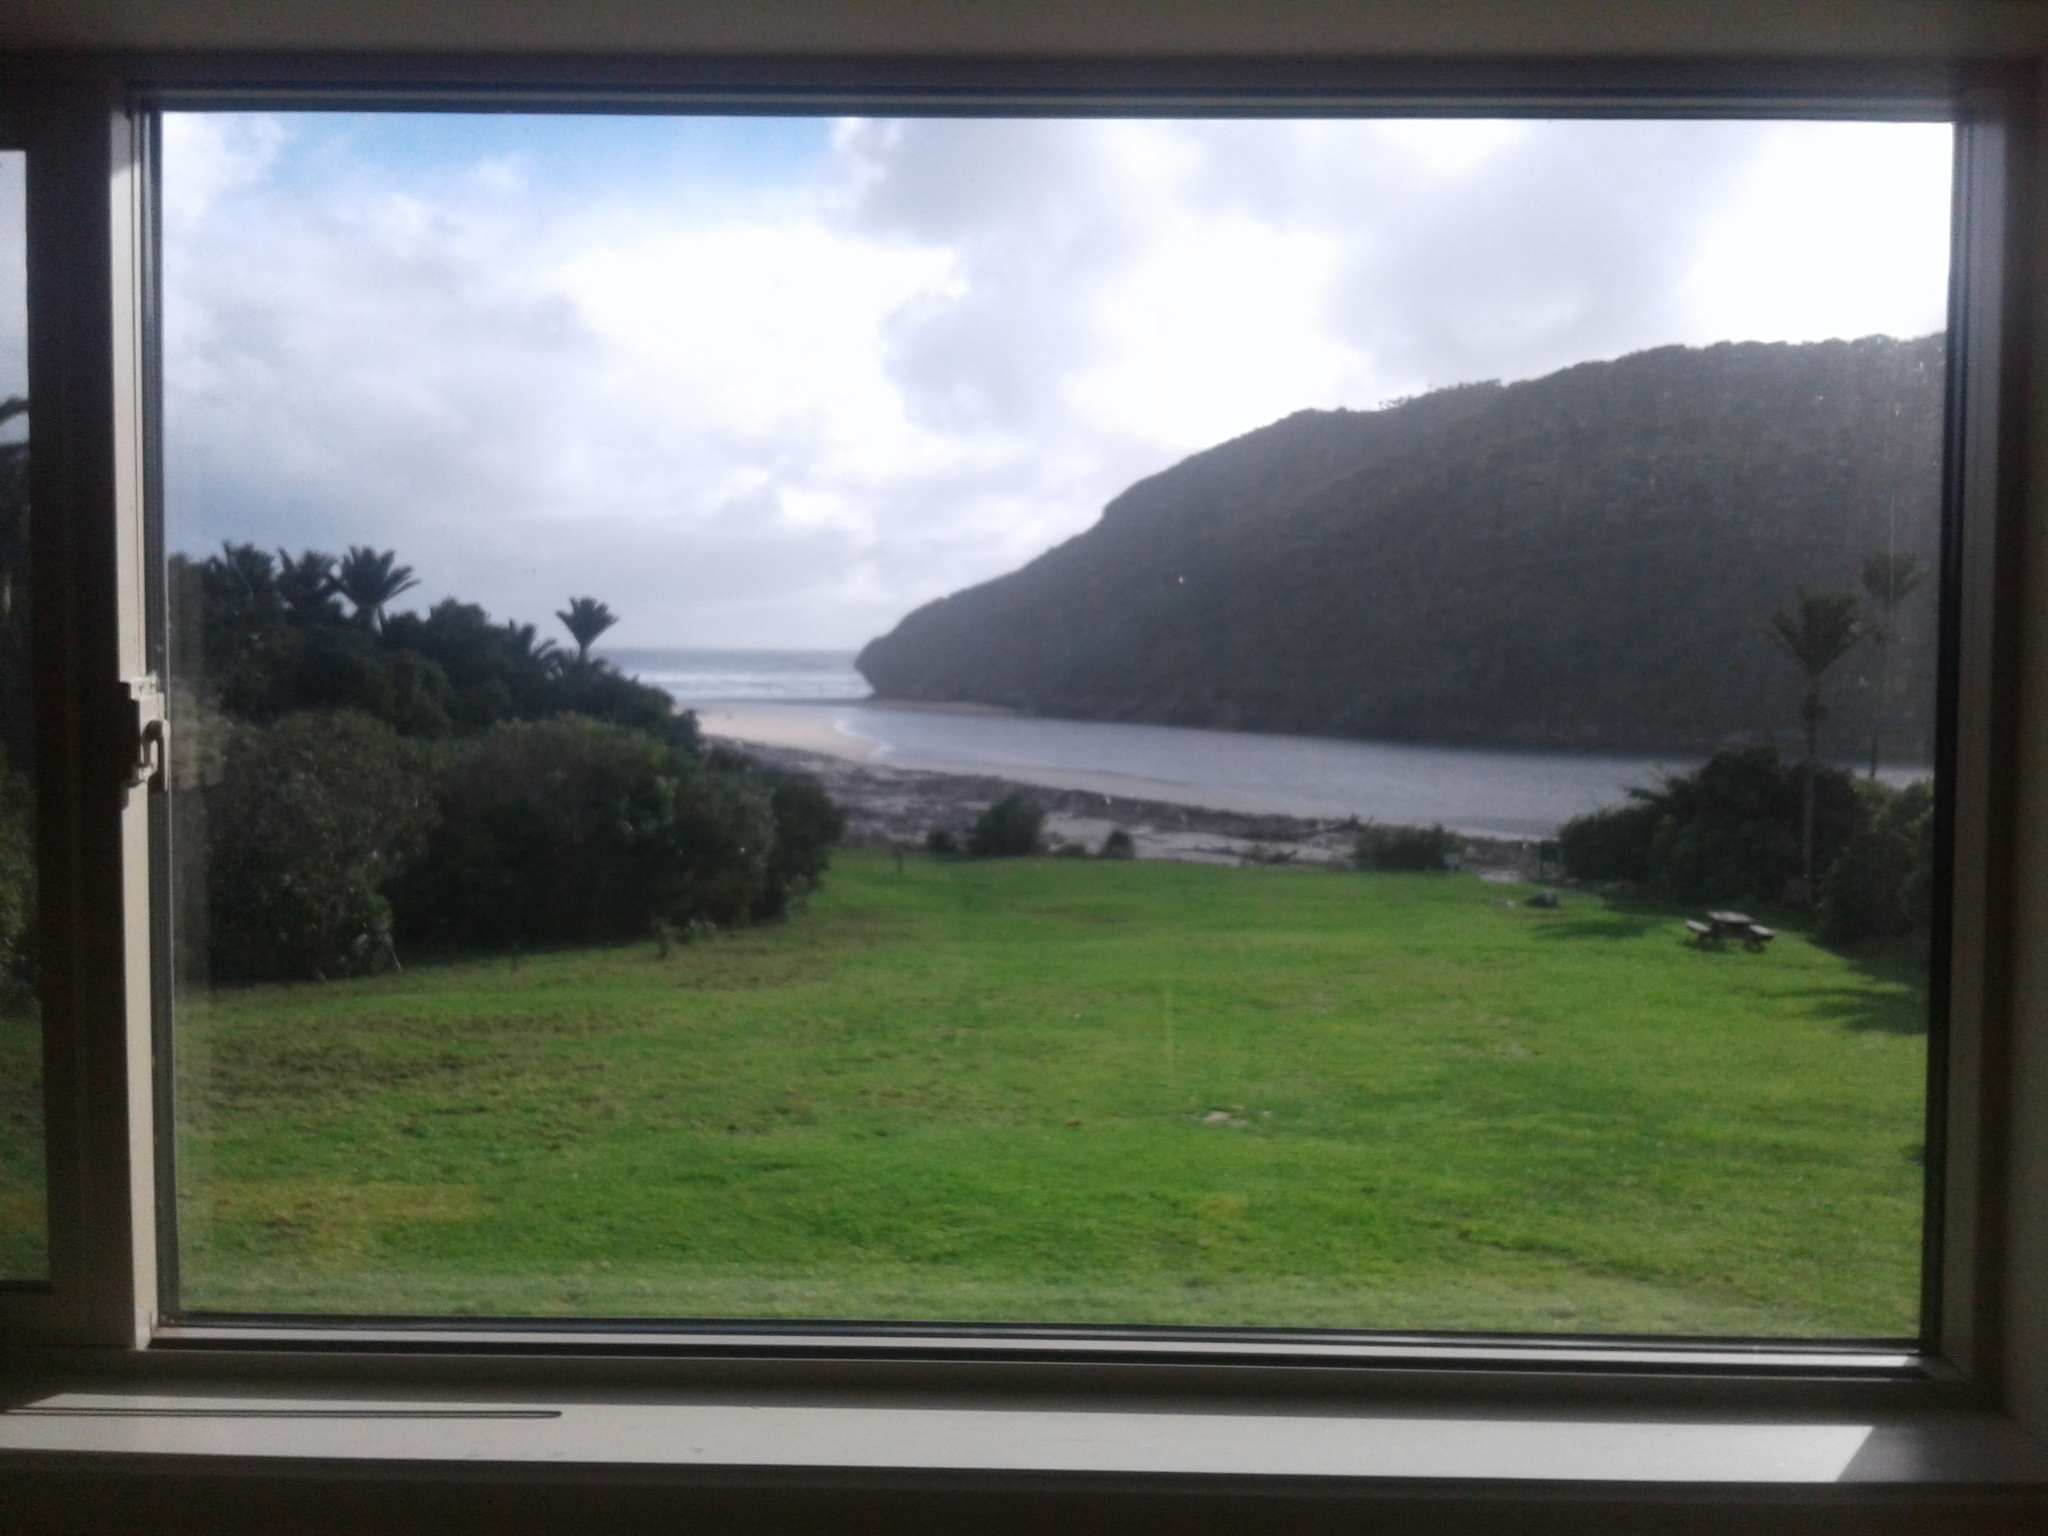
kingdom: Plantae
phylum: Tracheophyta
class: Liliopsida
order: Arecales
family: Arecaceae
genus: Rhopalostylis
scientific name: Rhopalostylis sapida
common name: Feather-duster palm
